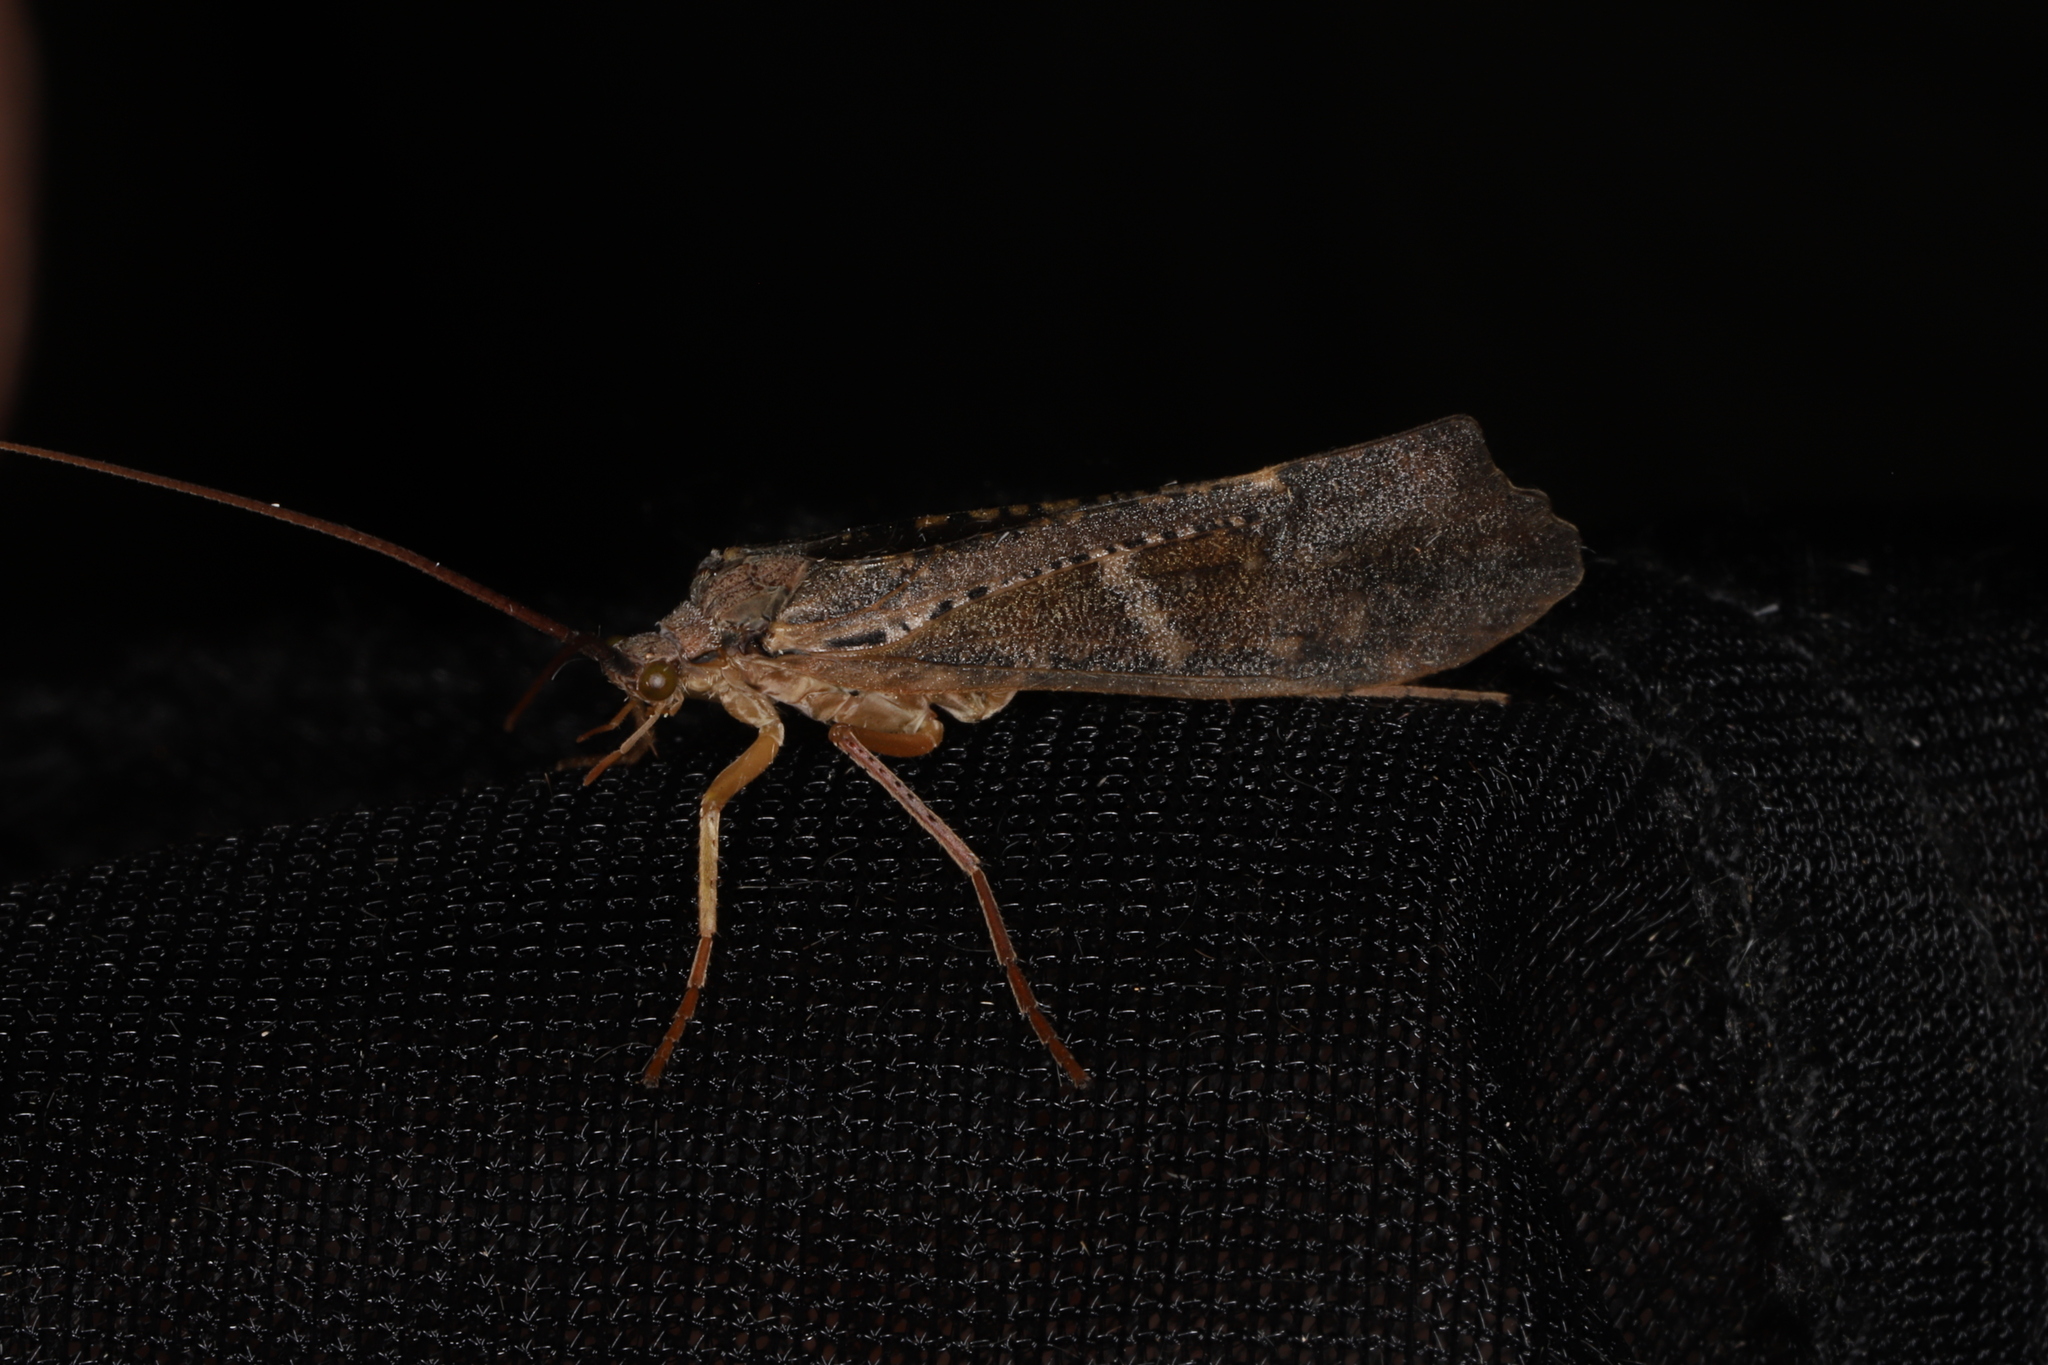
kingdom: Animalia
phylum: Arthropoda
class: Insecta
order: Trichoptera
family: Limnephilidae
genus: Nemotaulius
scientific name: Nemotaulius hostilis
